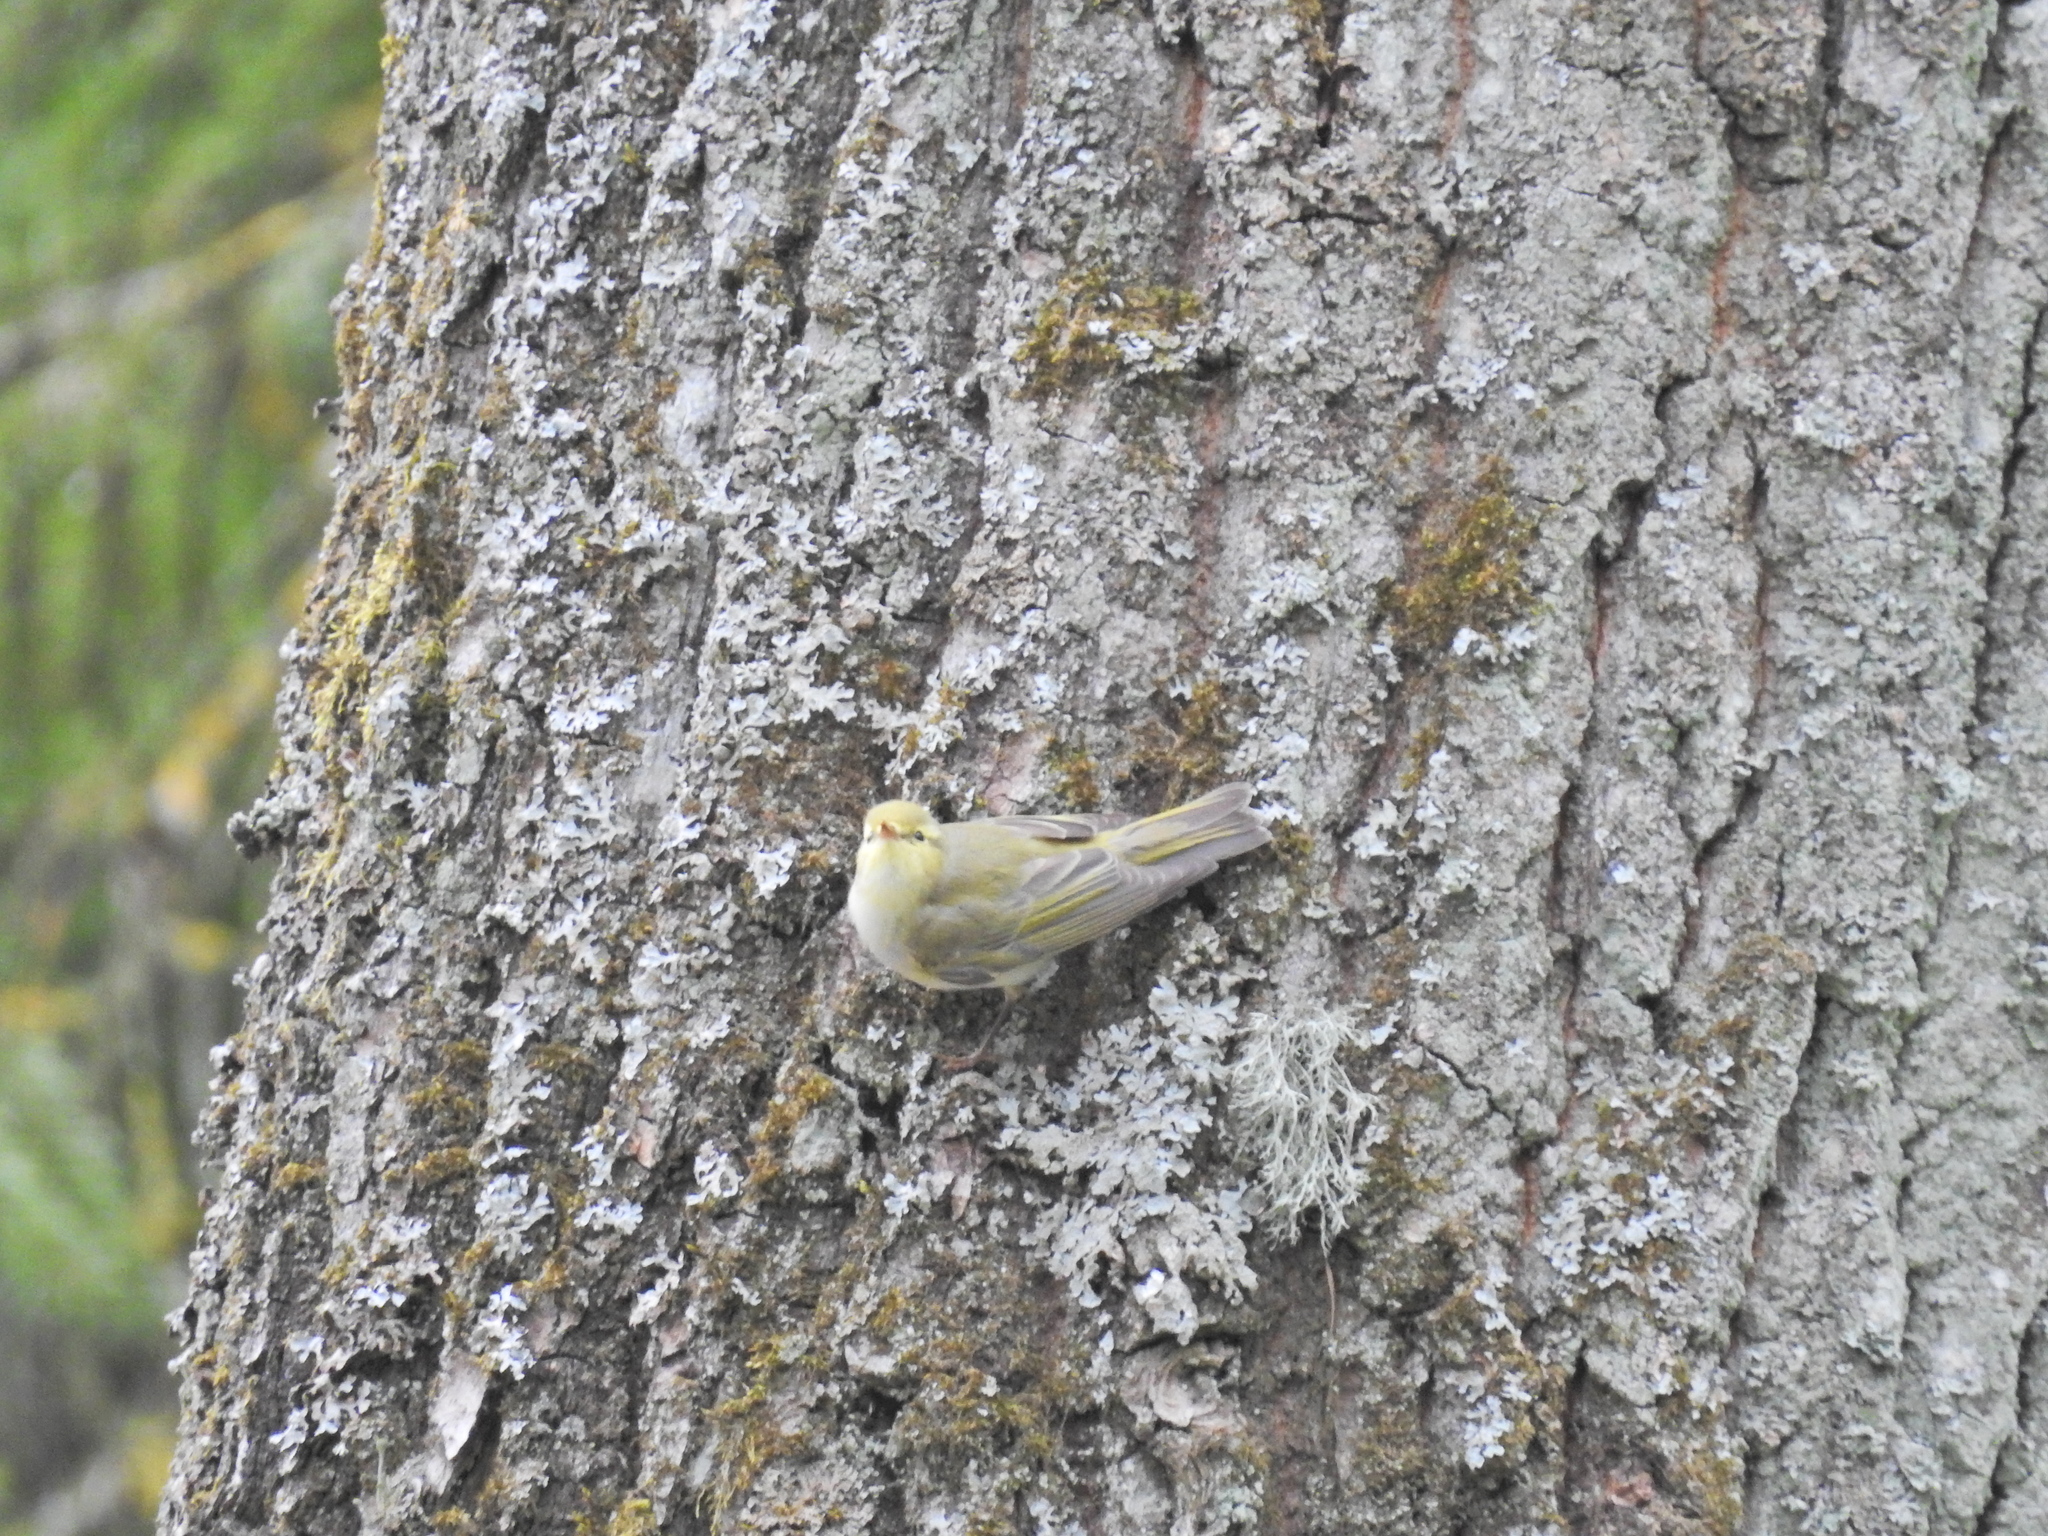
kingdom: Animalia
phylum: Chordata
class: Aves
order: Passeriformes
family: Phylloscopidae
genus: Phylloscopus
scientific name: Phylloscopus sibillatrix
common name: Wood warbler
